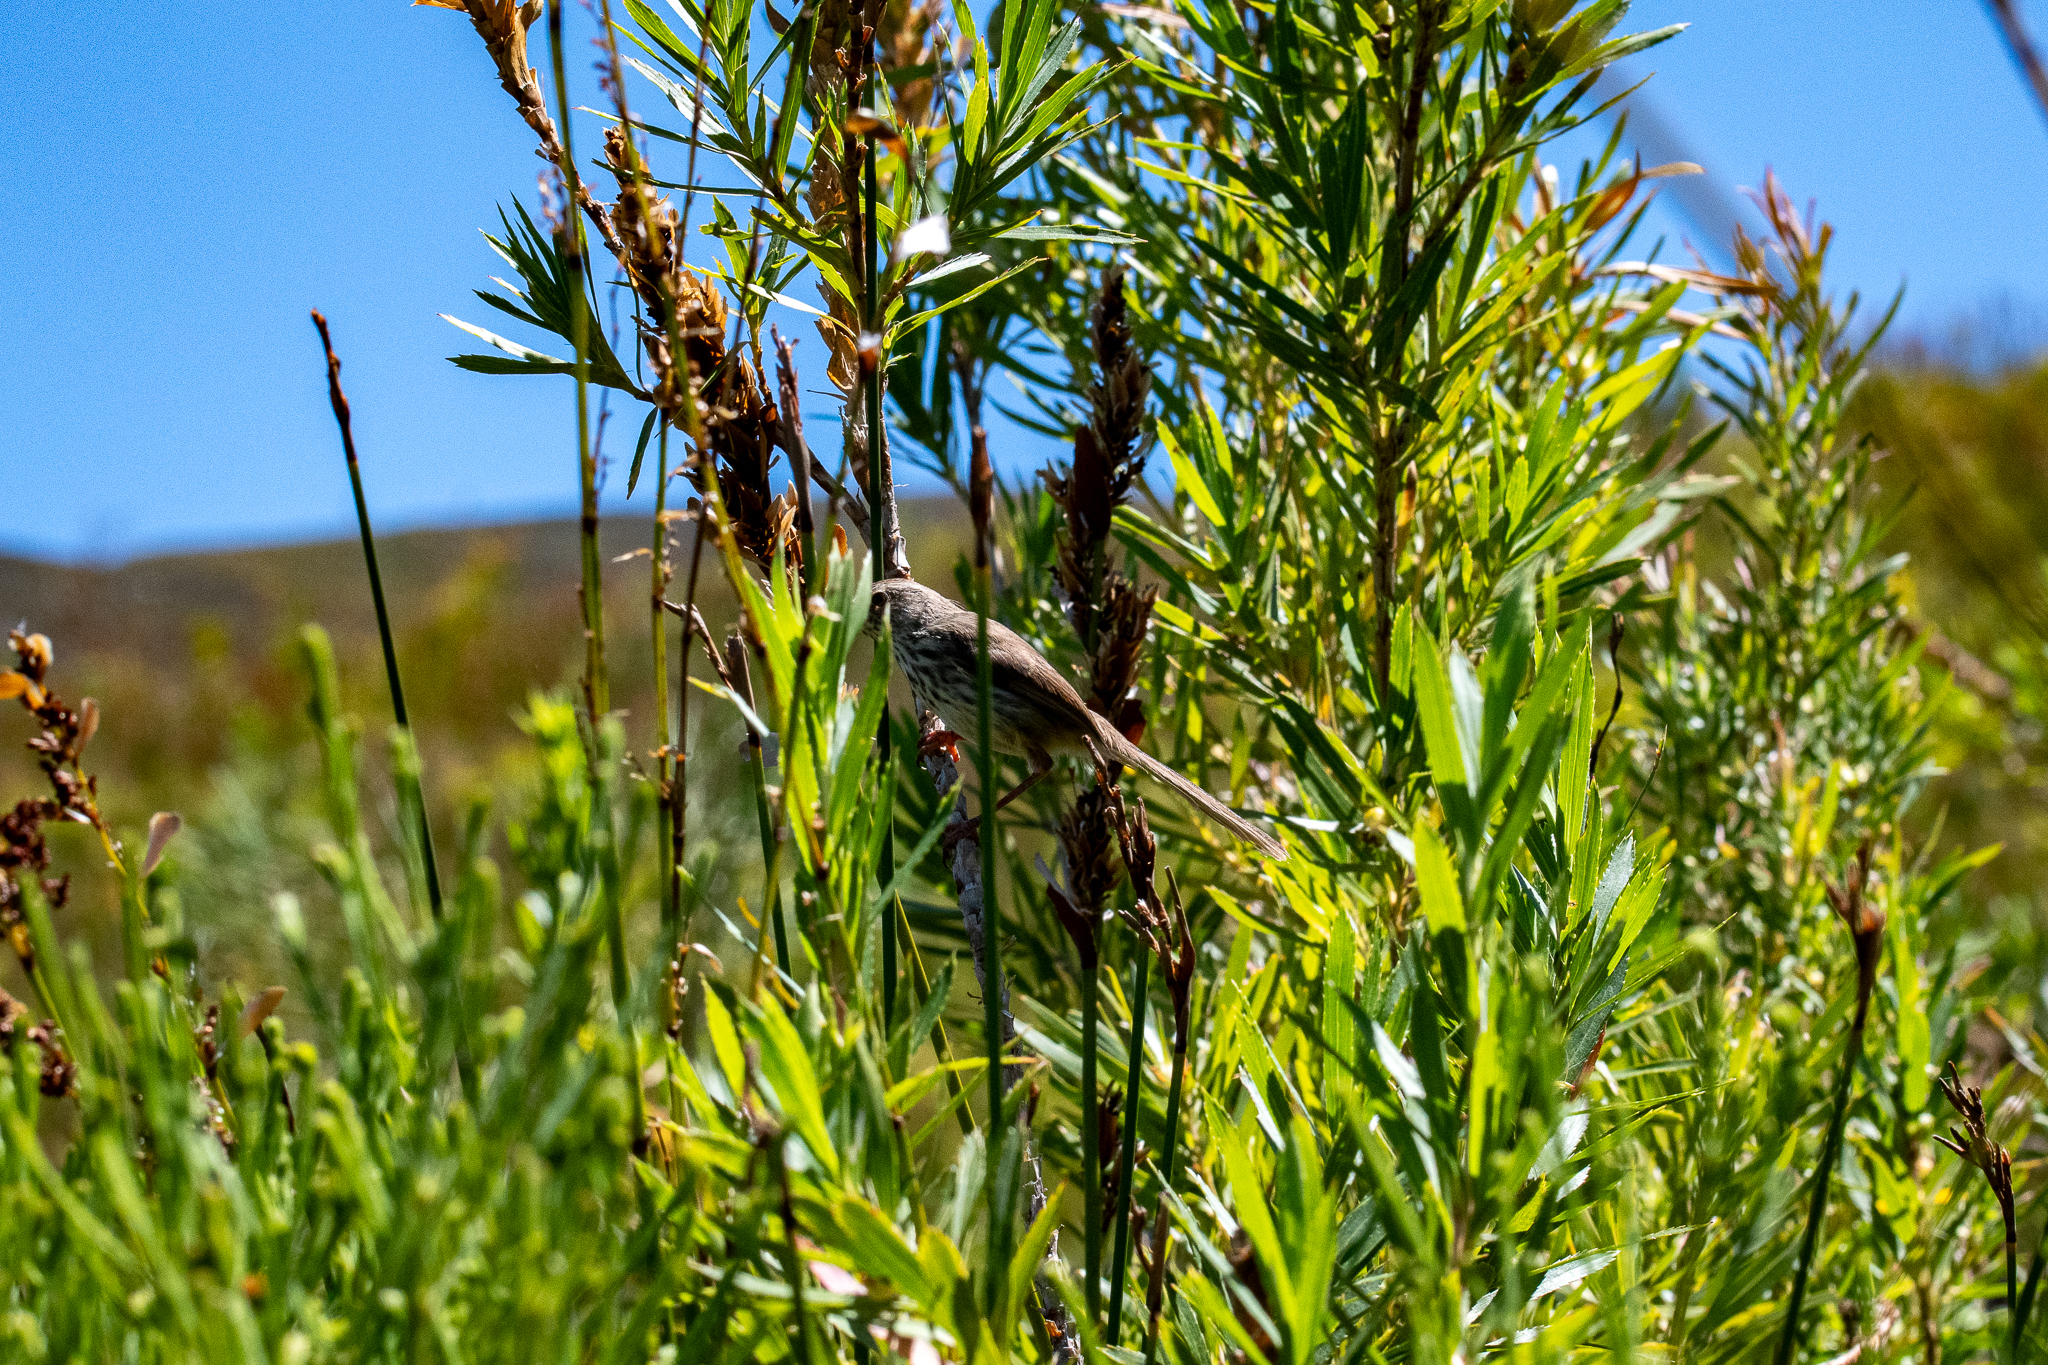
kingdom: Animalia
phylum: Chordata
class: Aves
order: Passeriformes
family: Cisticolidae
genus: Prinia
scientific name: Prinia maculosa
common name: Karoo prinia
